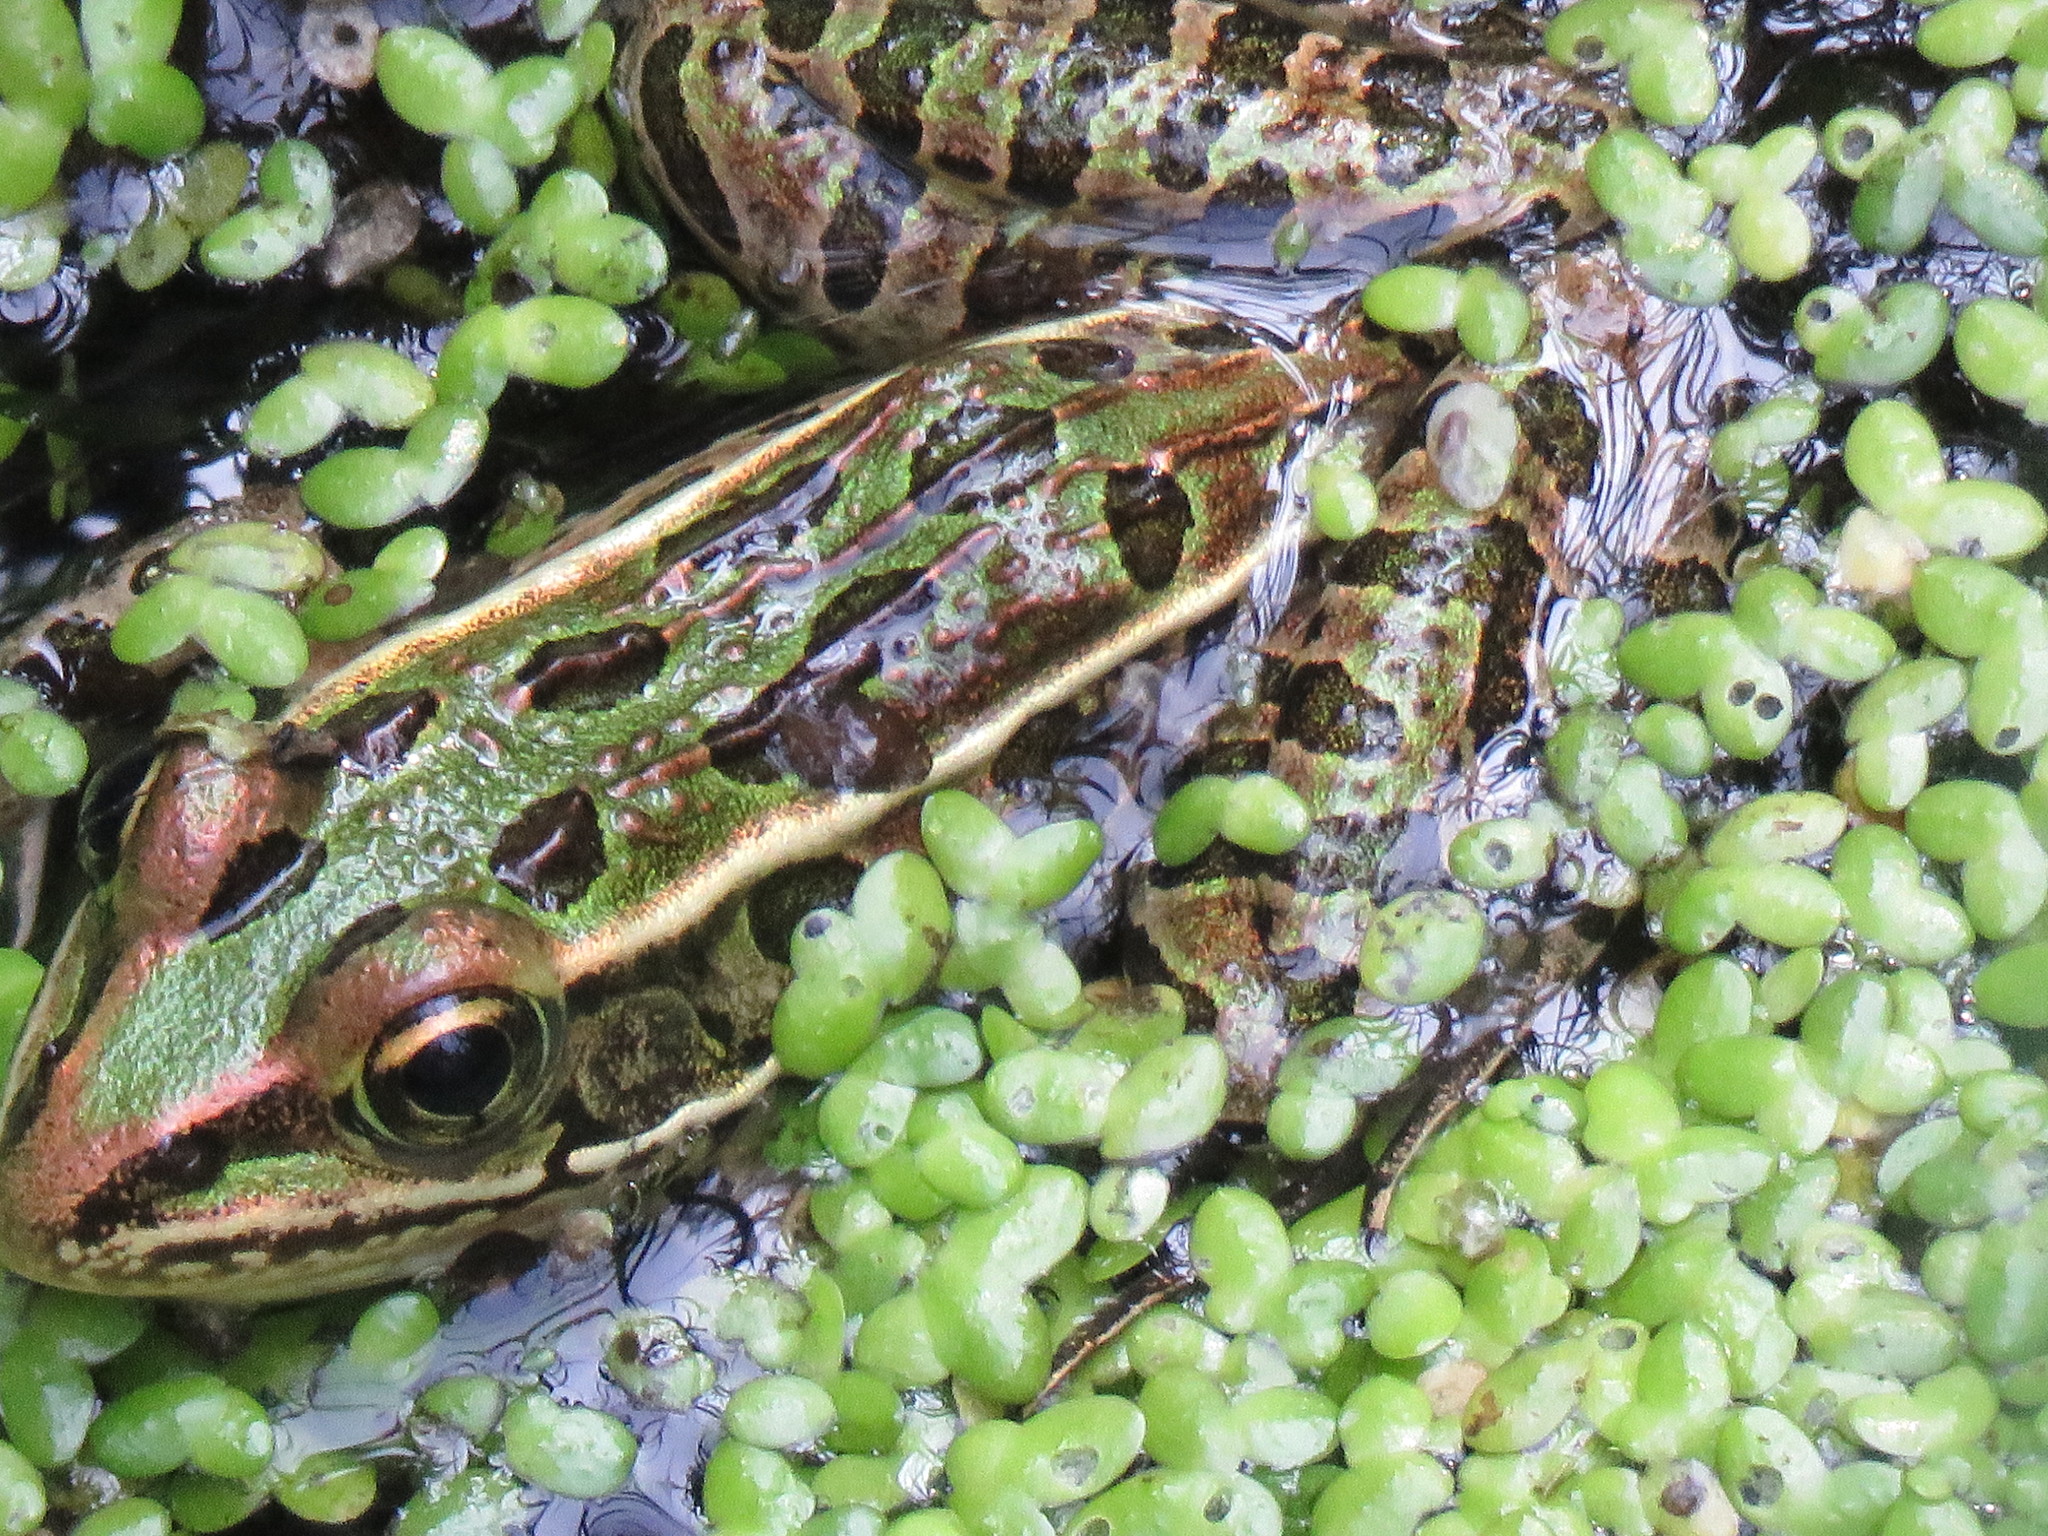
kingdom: Animalia
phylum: Chordata
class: Amphibia
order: Anura
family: Ranidae
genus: Lithobates
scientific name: Lithobates pipiens
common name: Northern leopard frog
